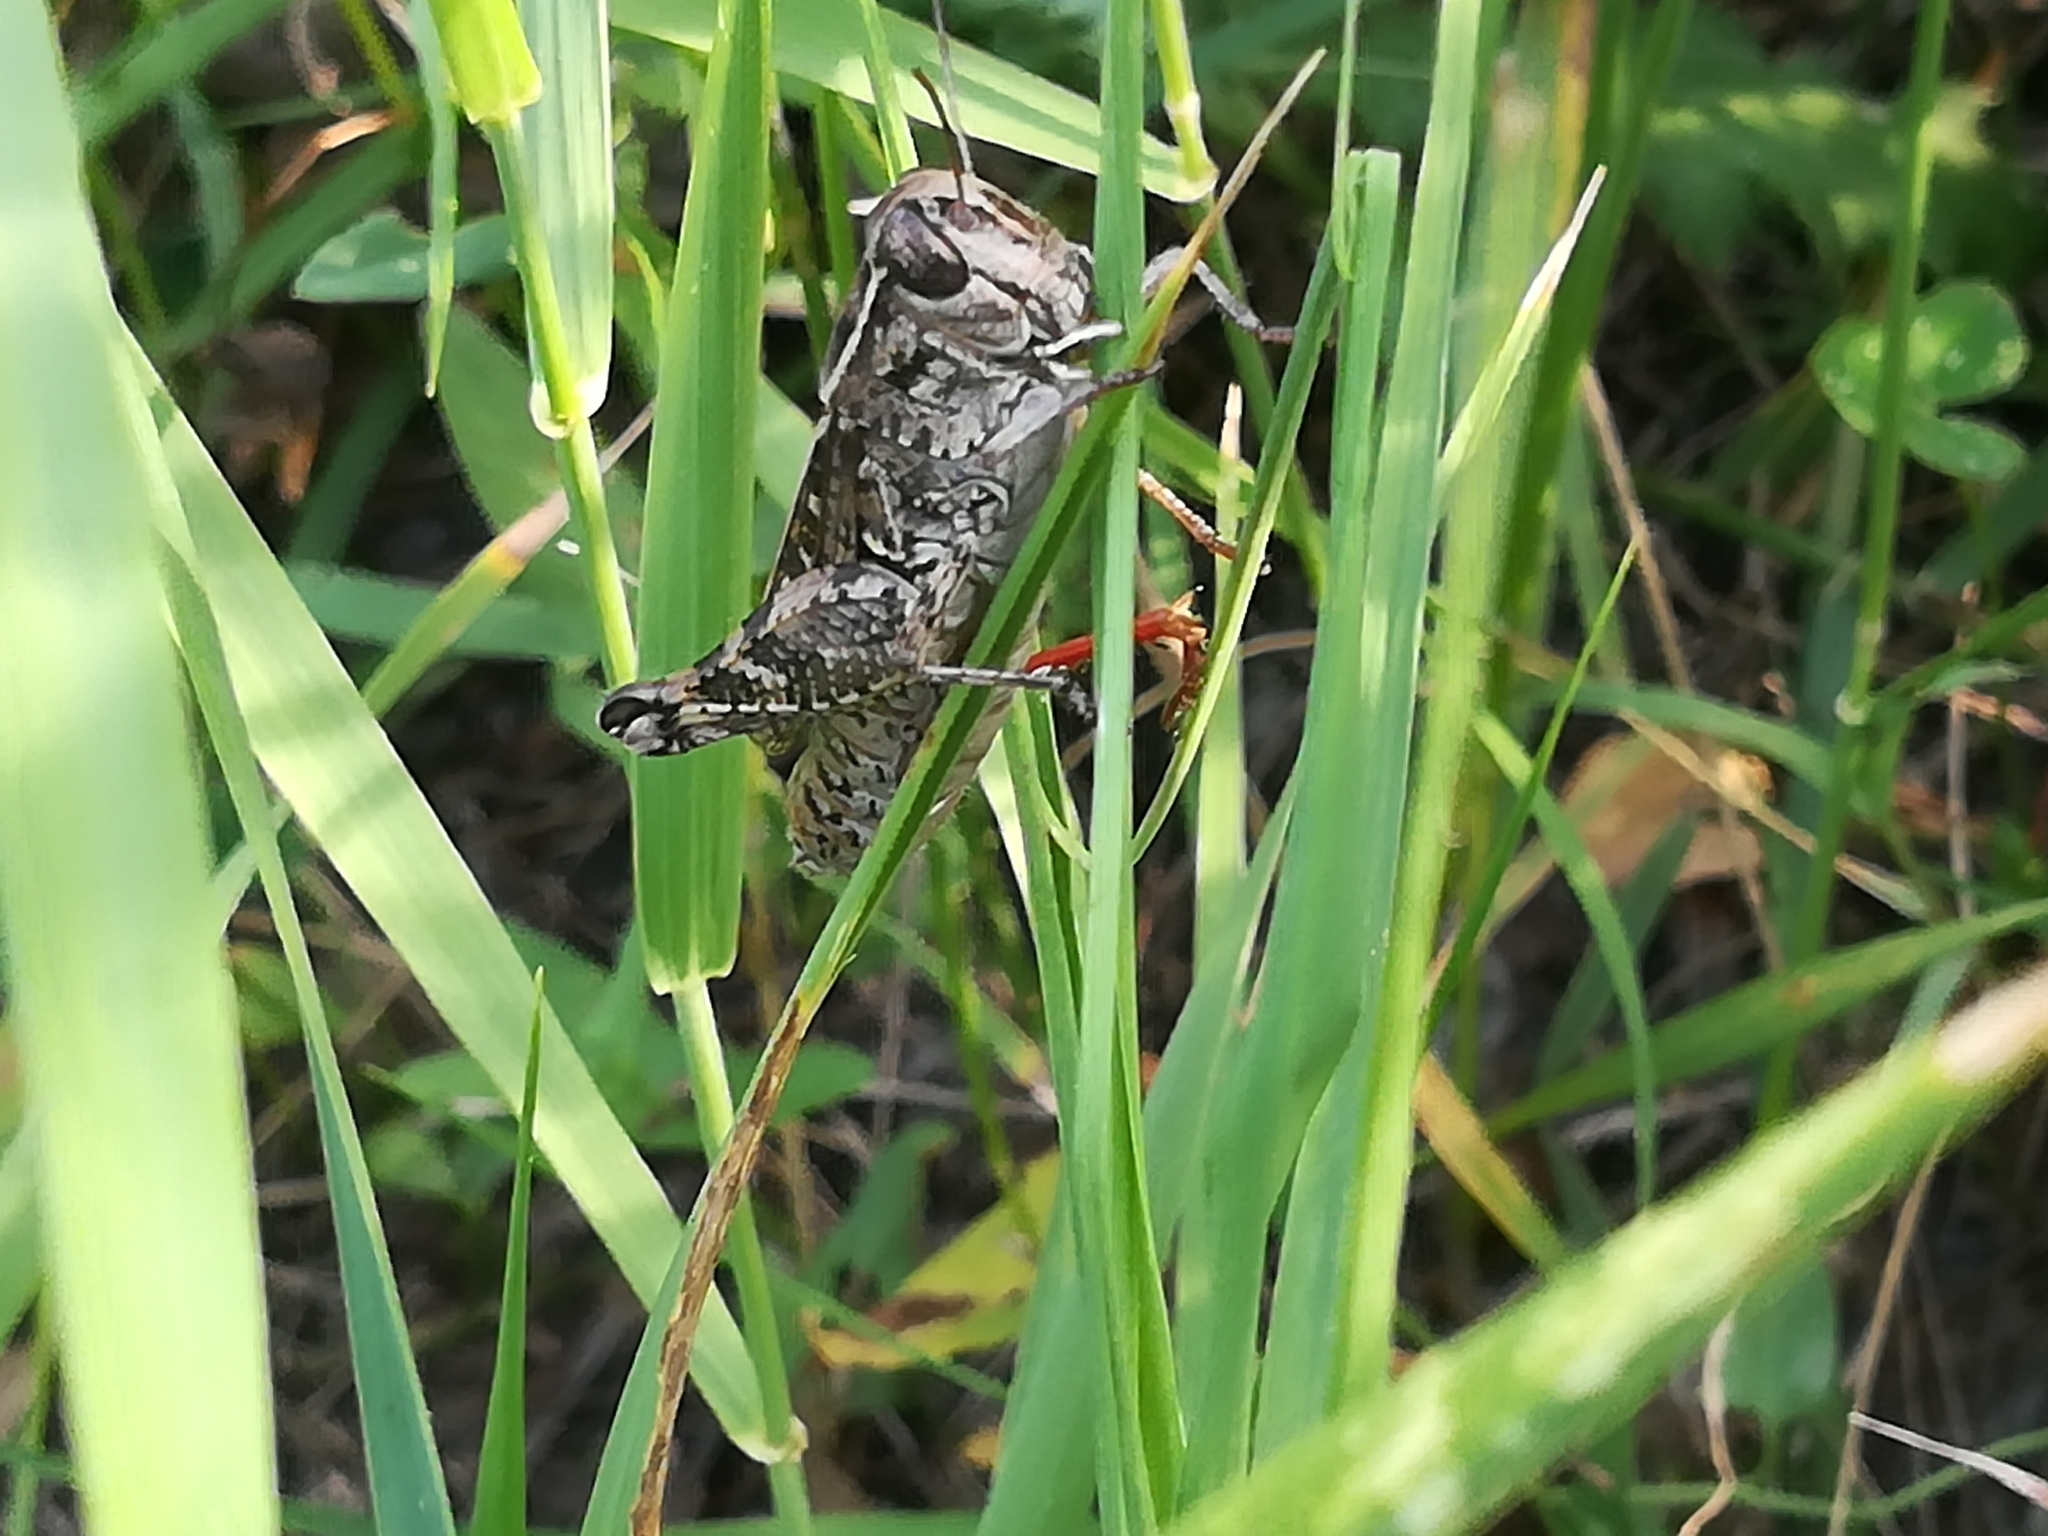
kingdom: Animalia
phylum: Arthropoda
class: Insecta
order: Orthoptera
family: Acrididae
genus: Calliptamus
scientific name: Calliptamus italicus
